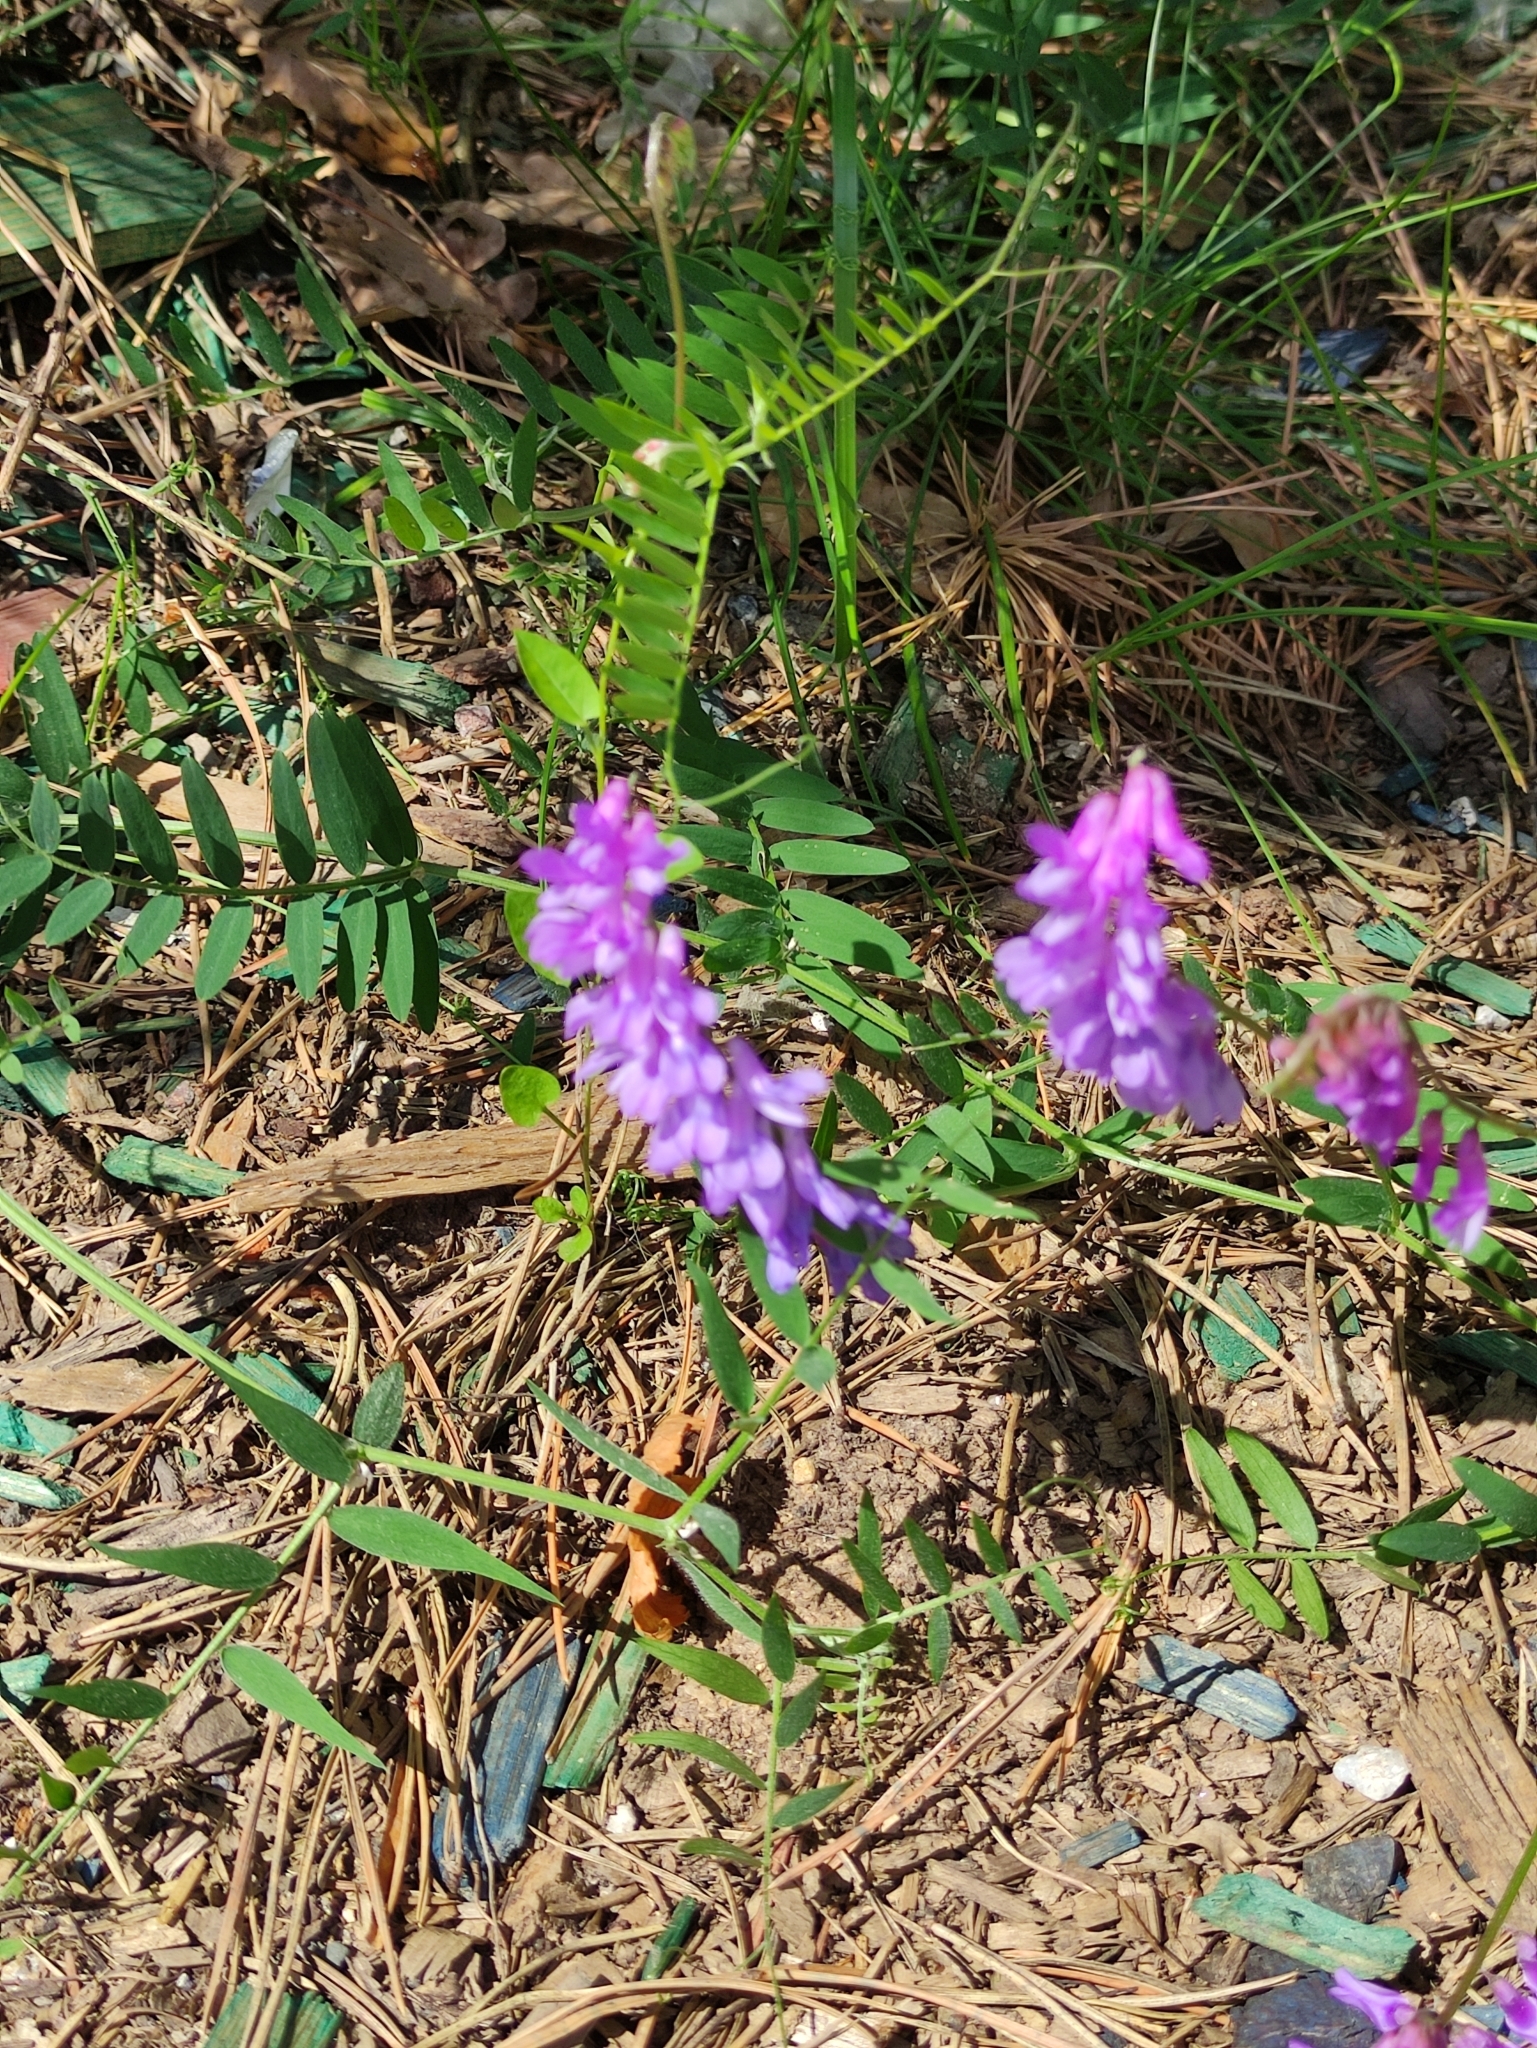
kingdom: Plantae
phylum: Tracheophyta
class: Magnoliopsida
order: Fabales
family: Fabaceae
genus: Vicia
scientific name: Vicia cracca
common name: Bird vetch
